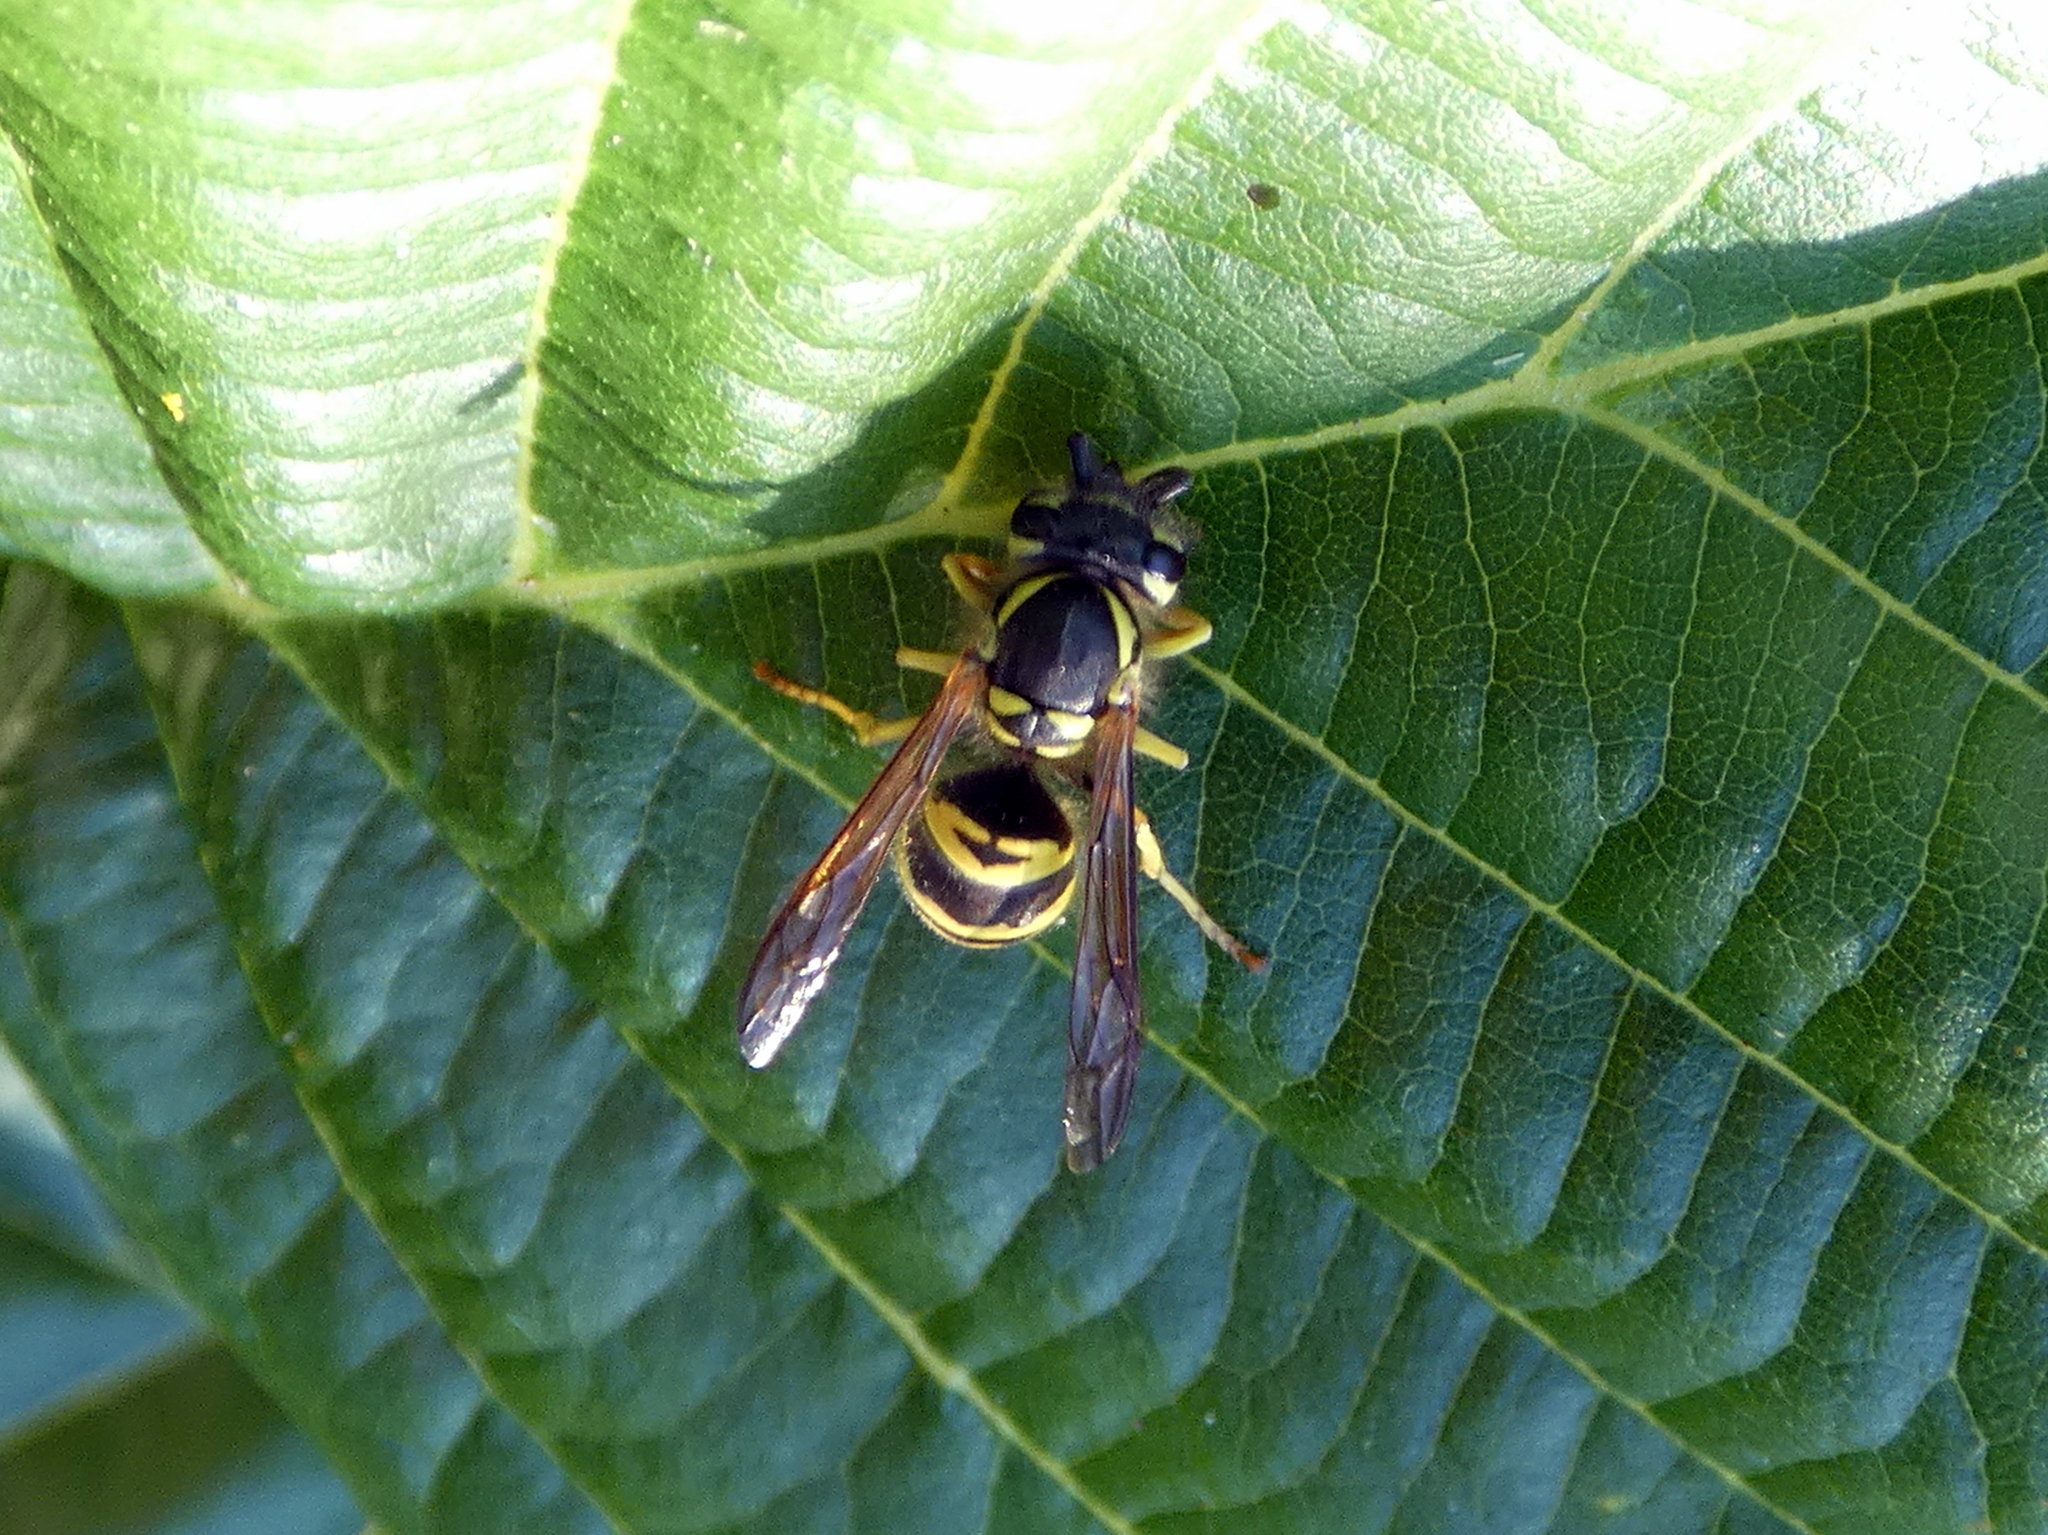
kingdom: Animalia
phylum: Arthropoda
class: Insecta
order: Hymenoptera
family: Vespidae
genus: Vespula
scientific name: Vespula maculifrons
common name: Eastern yellowjacket
